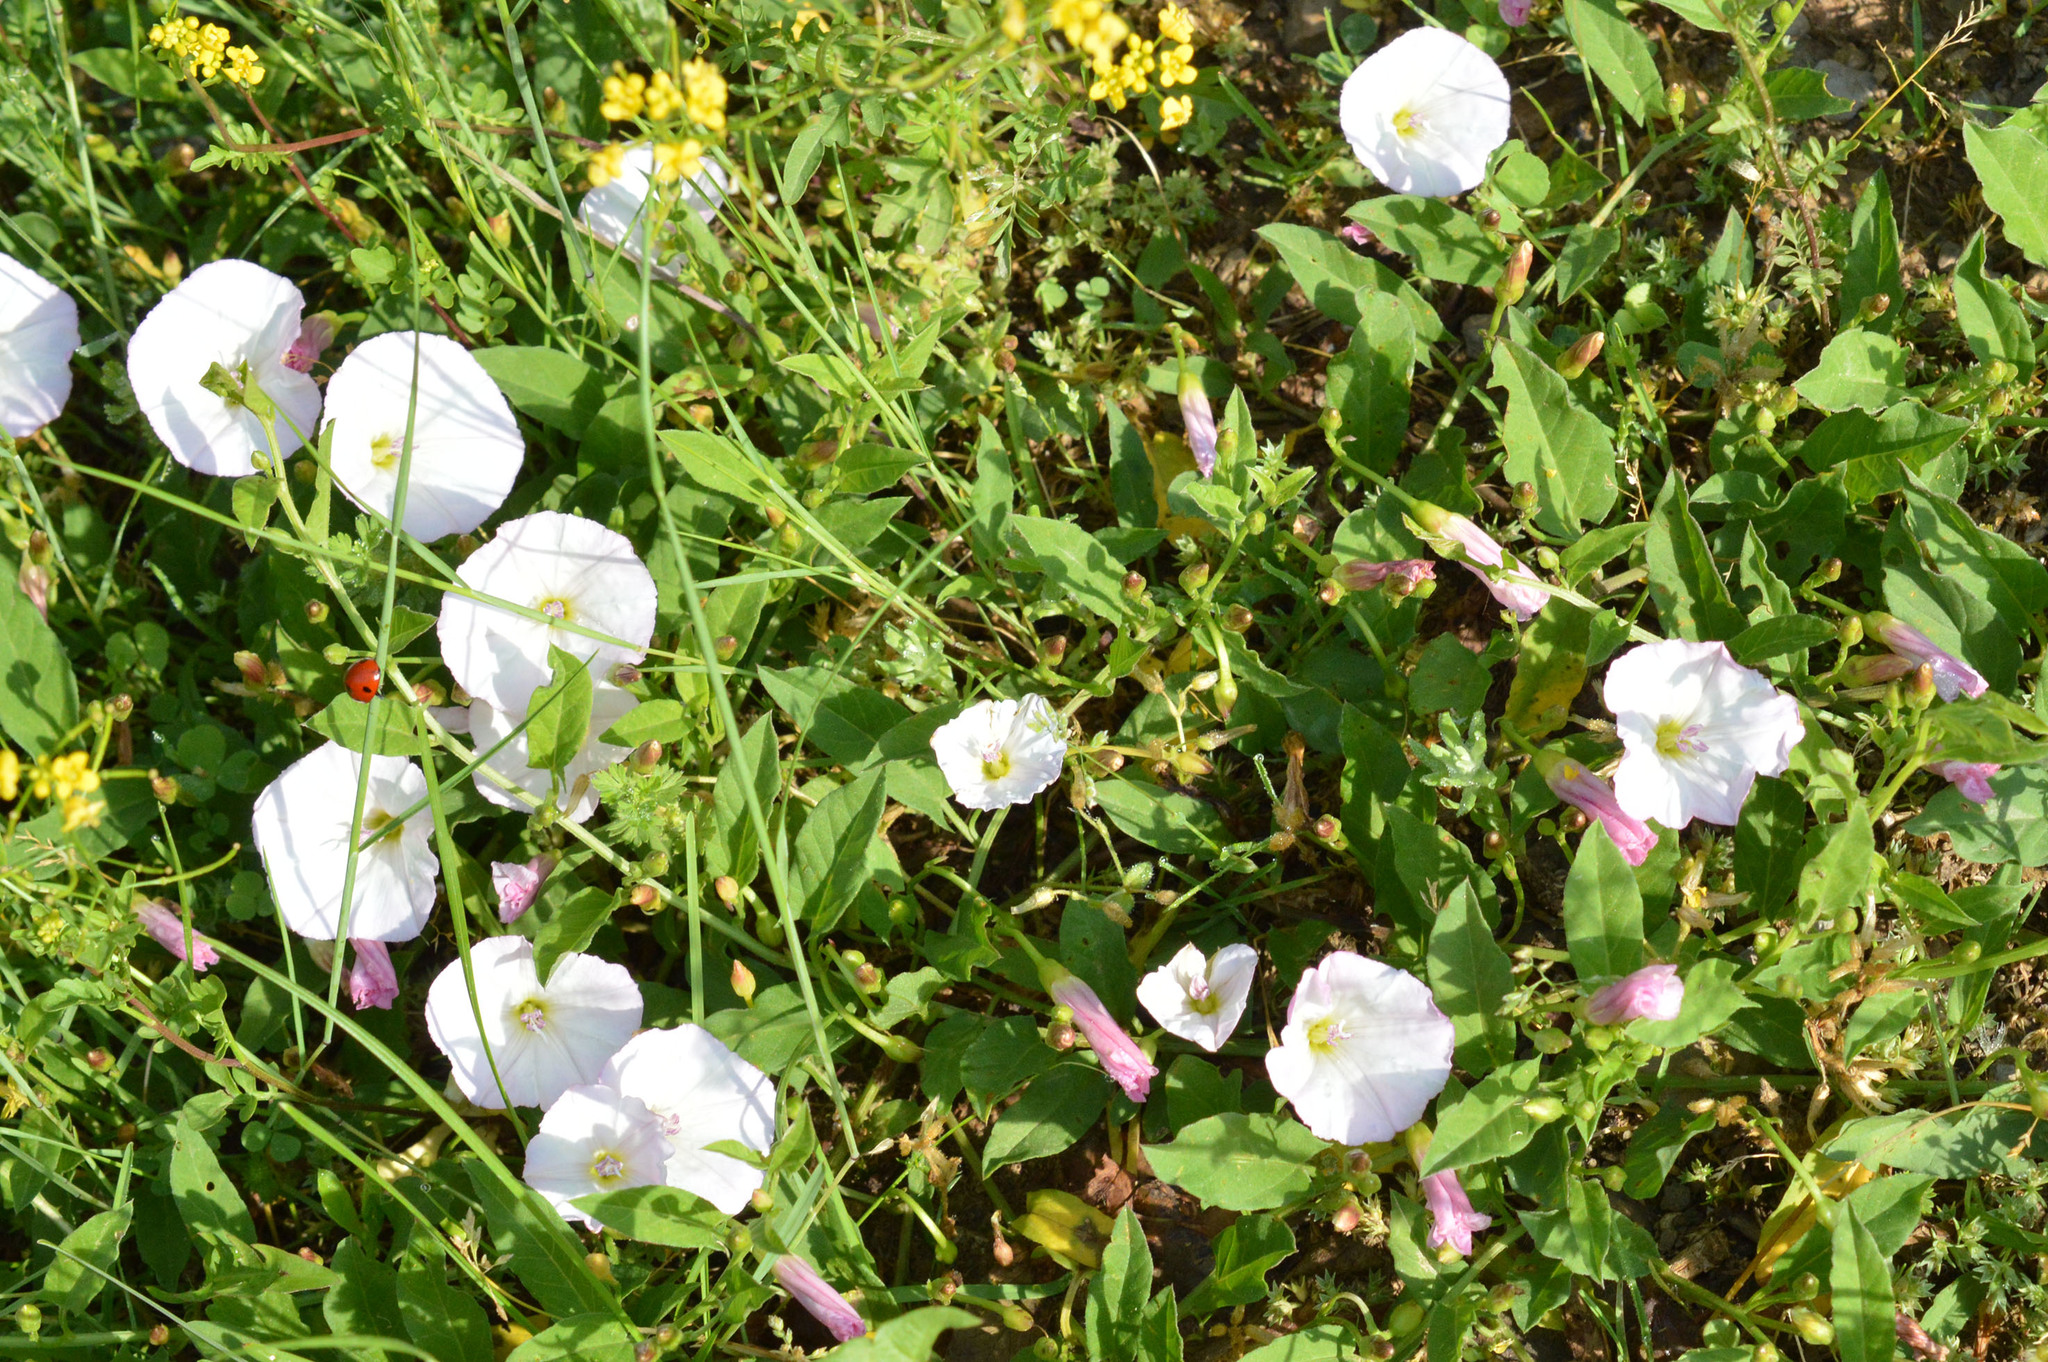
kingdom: Plantae
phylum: Tracheophyta
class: Magnoliopsida
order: Solanales
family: Convolvulaceae
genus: Convolvulus
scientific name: Convolvulus arvensis
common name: Field bindweed
